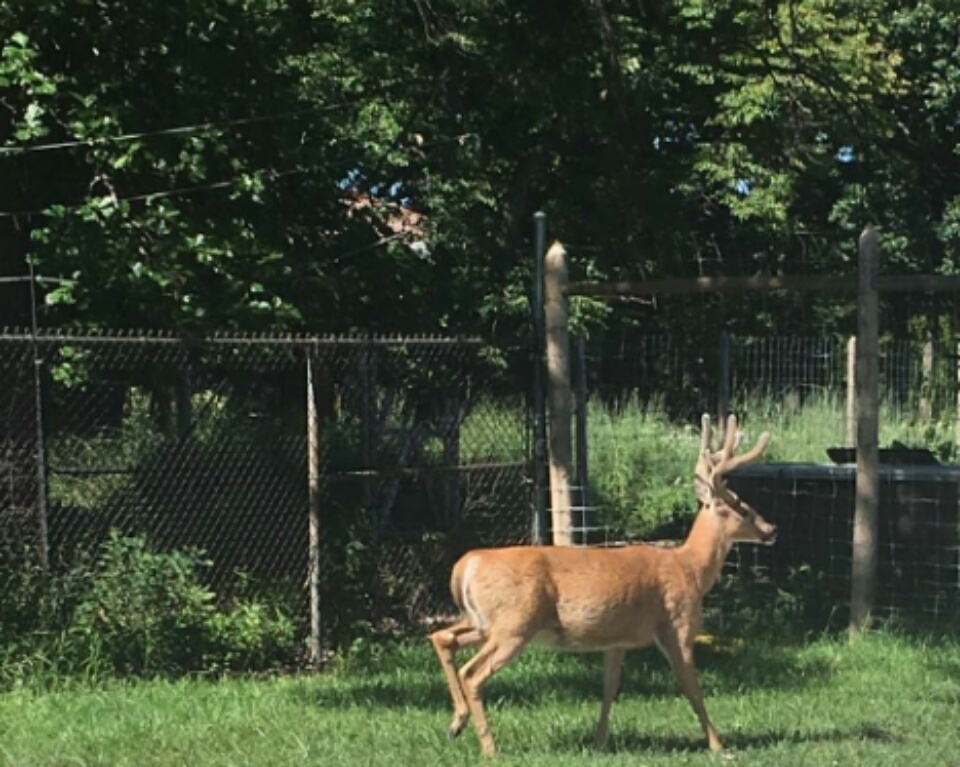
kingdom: Animalia
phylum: Chordata
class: Mammalia
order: Artiodactyla
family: Cervidae
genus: Odocoileus
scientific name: Odocoileus virginianus
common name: White-tailed deer
